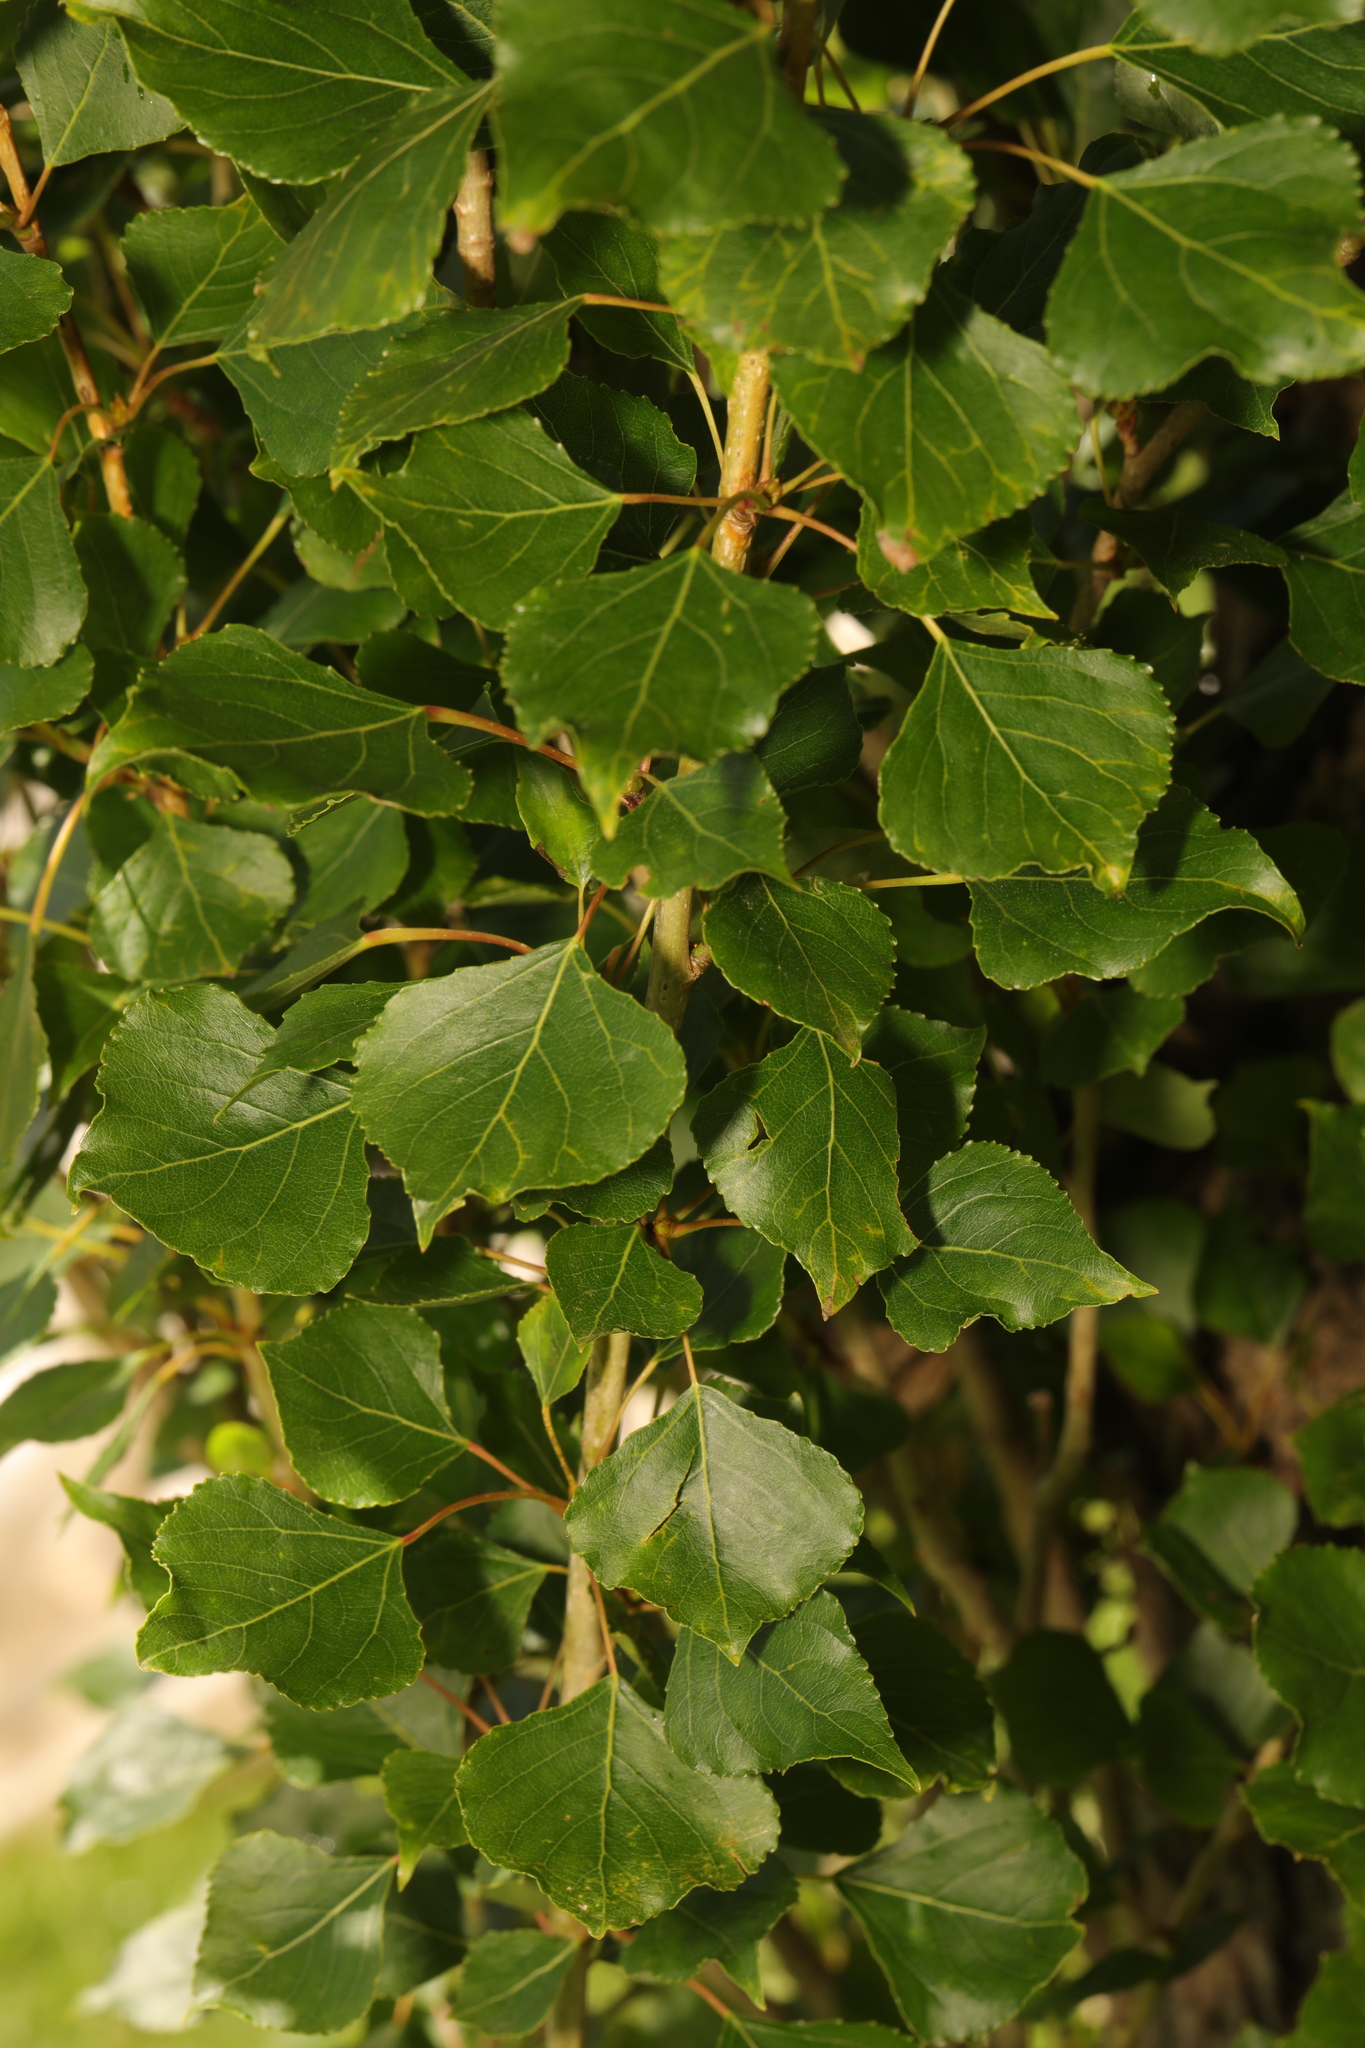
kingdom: Plantae
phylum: Tracheophyta
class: Magnoliopsida
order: Malpighiales
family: Salicaceae
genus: Populus
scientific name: Populus nigra
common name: Black poplar
